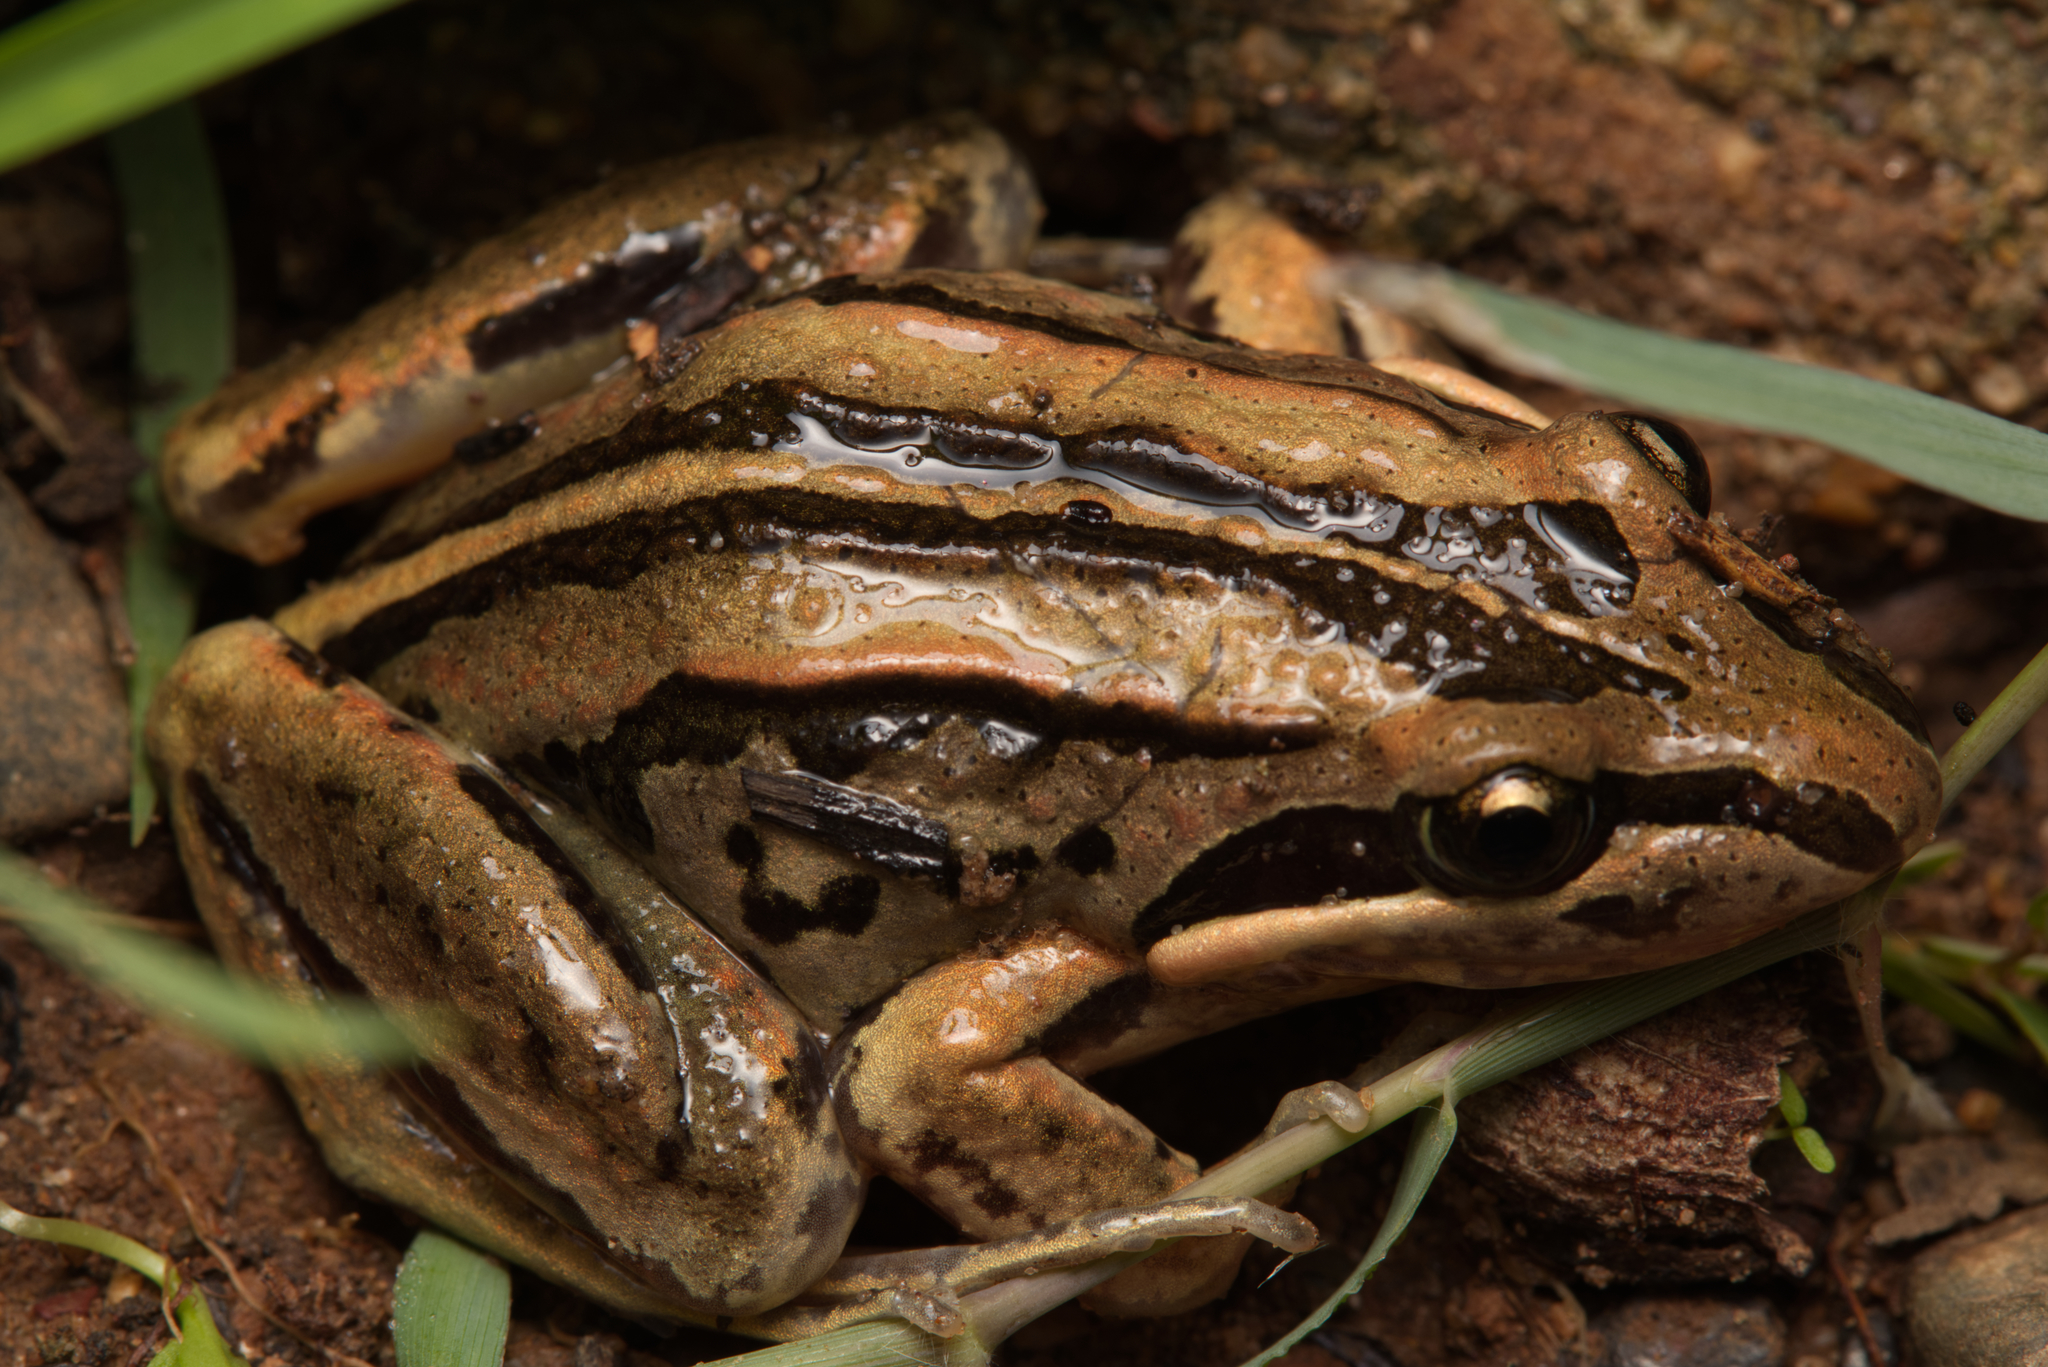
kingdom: Animalia
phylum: Chordata
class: Amphibia
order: Anura
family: Limnodynastidae
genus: Limnodynastes
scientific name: Limnodynastes peronii
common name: Brown frog
